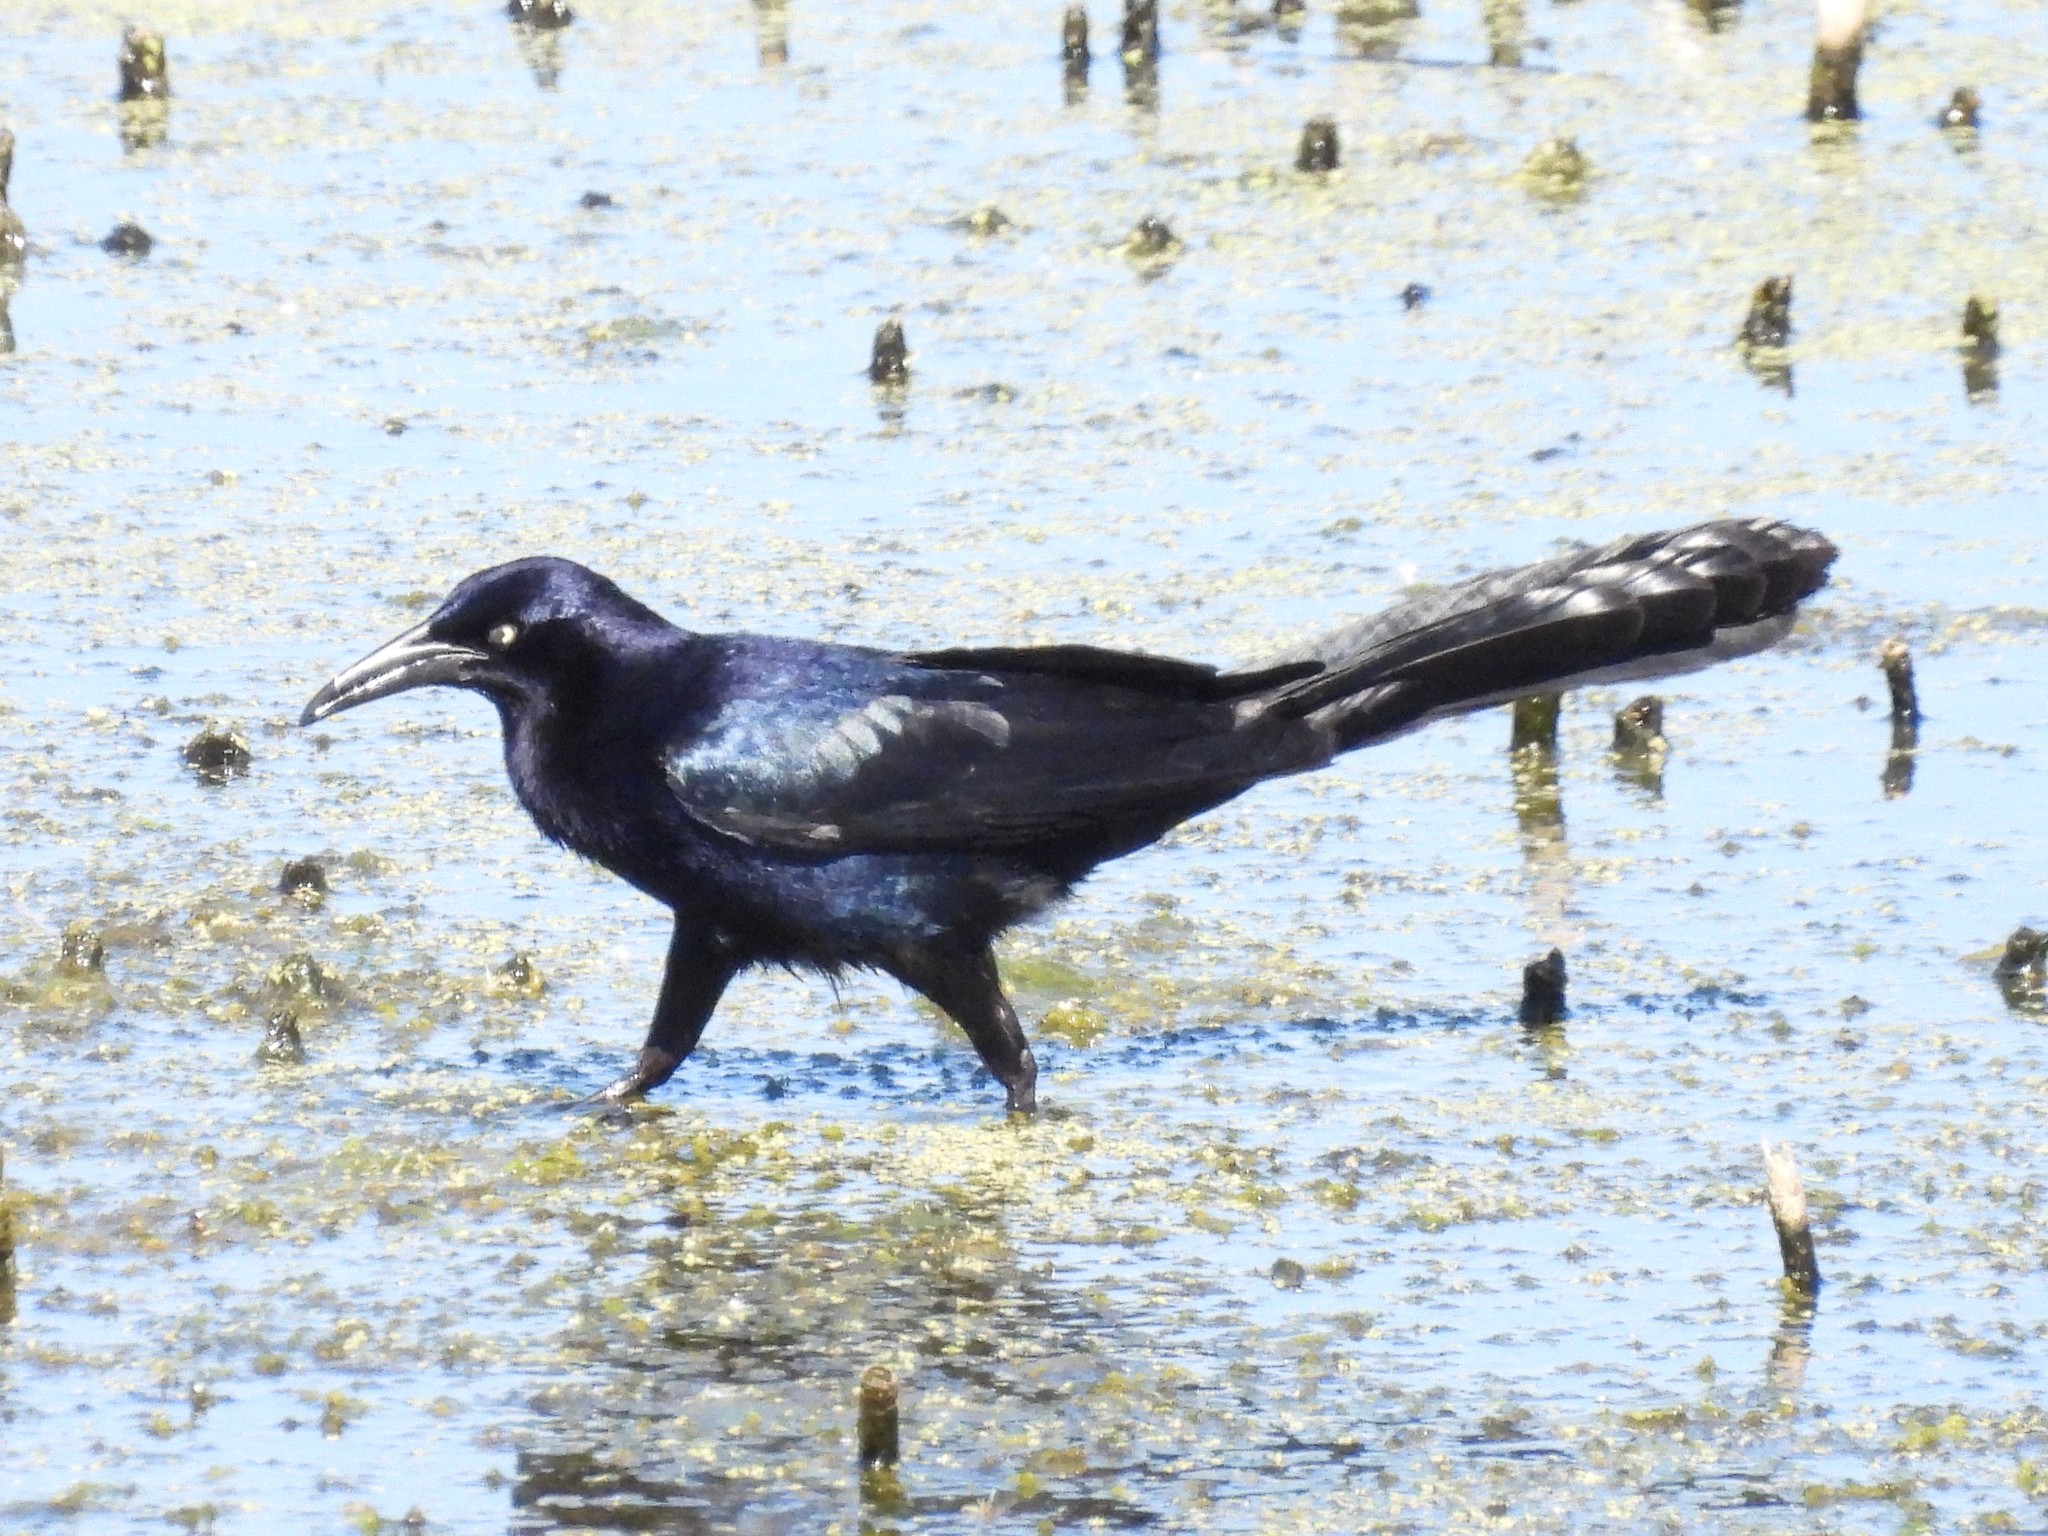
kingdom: Animalia
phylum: Chordata
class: Aves
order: Passeriformes
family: Icteridae
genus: Quiscalus
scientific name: Quiscalus mexicanus
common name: Great-tailed grackle
